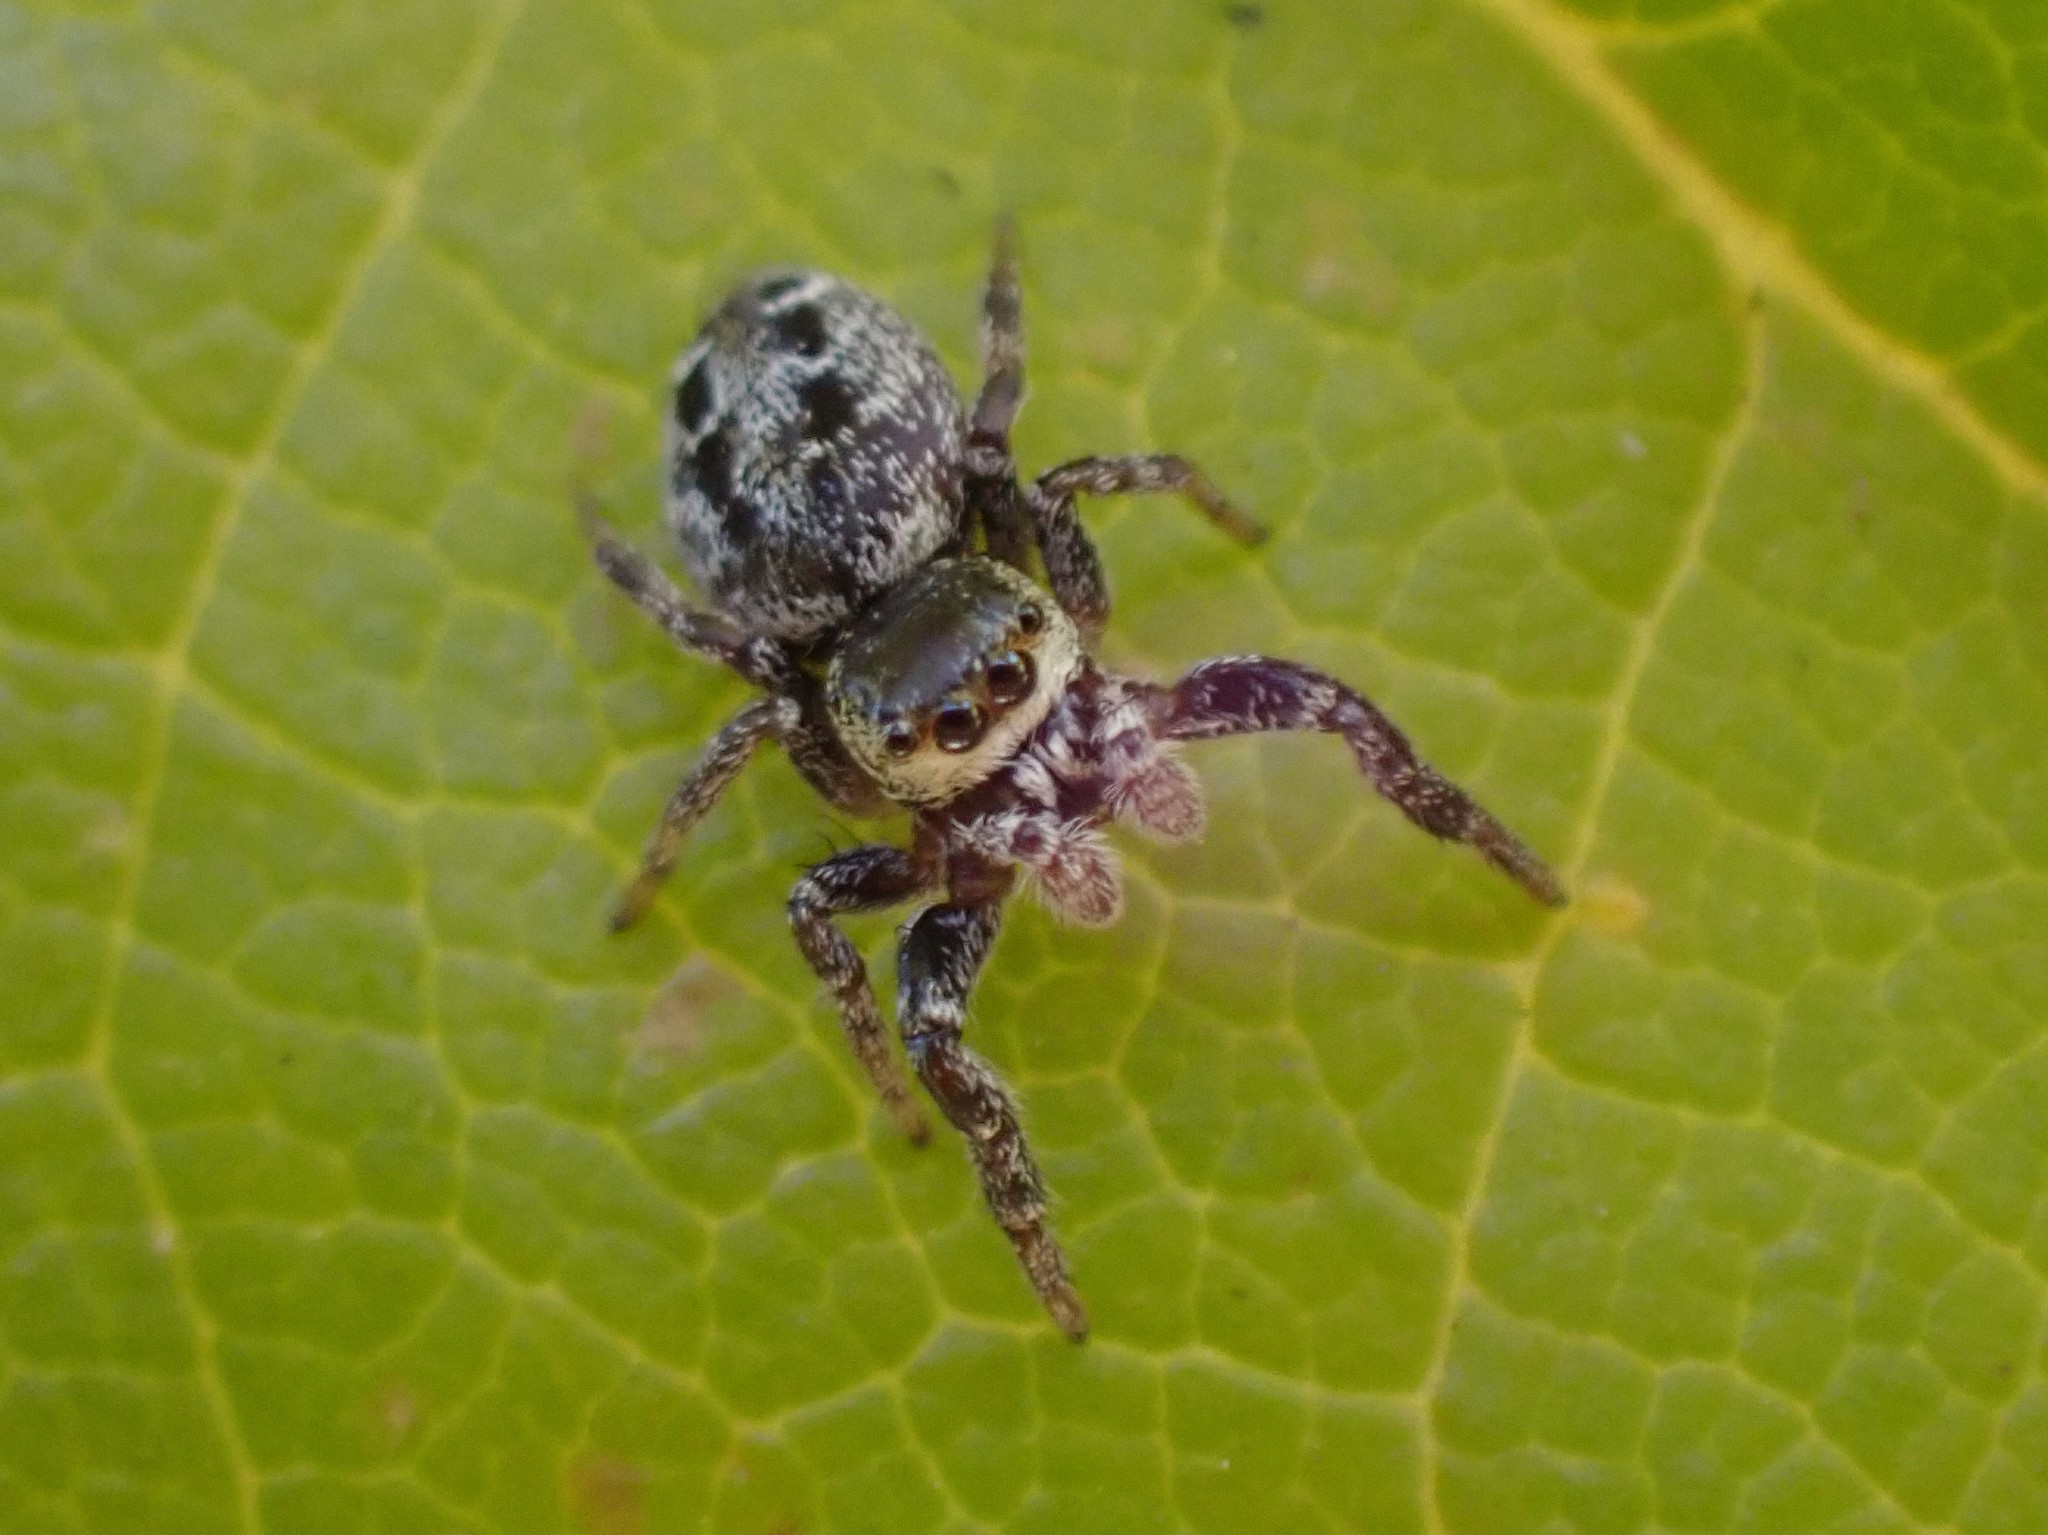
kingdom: Animalia
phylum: Arthropoda
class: Arachnida
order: Araneae
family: Salticidae
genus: Metaphidippus
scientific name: Metaphidippus manni
